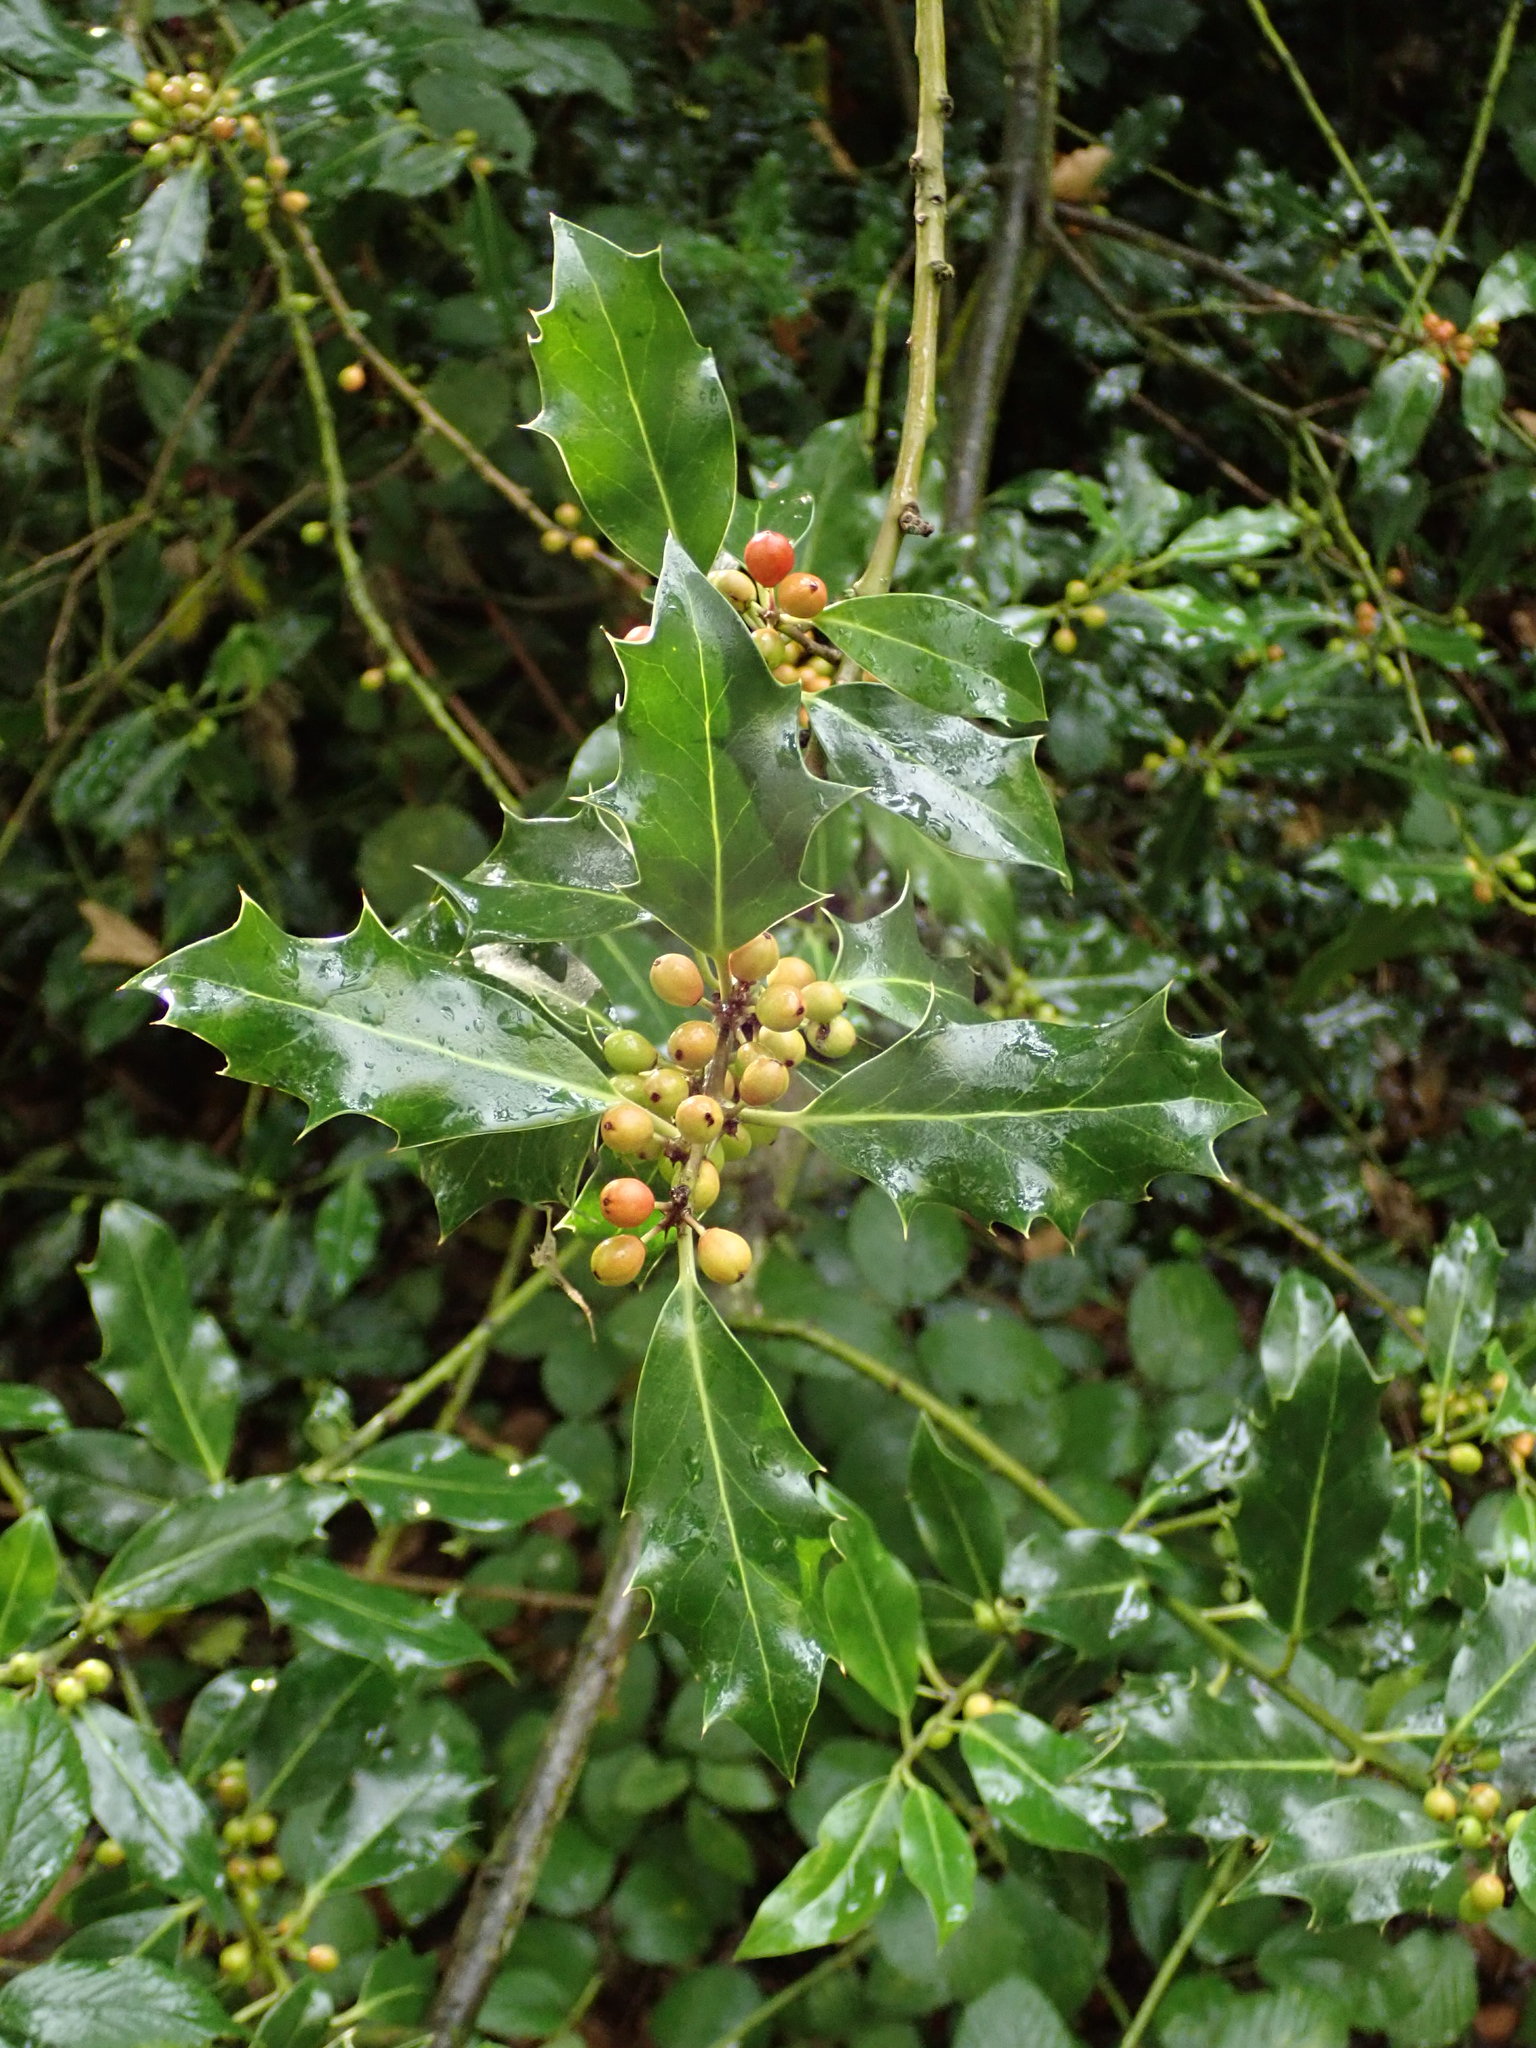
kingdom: Plantae
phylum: Tracheophyta
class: Magnoliopsida
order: Aquifoliales
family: Aquifoliaceae
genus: Ilex
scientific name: Ilex aquifolium
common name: English holly
